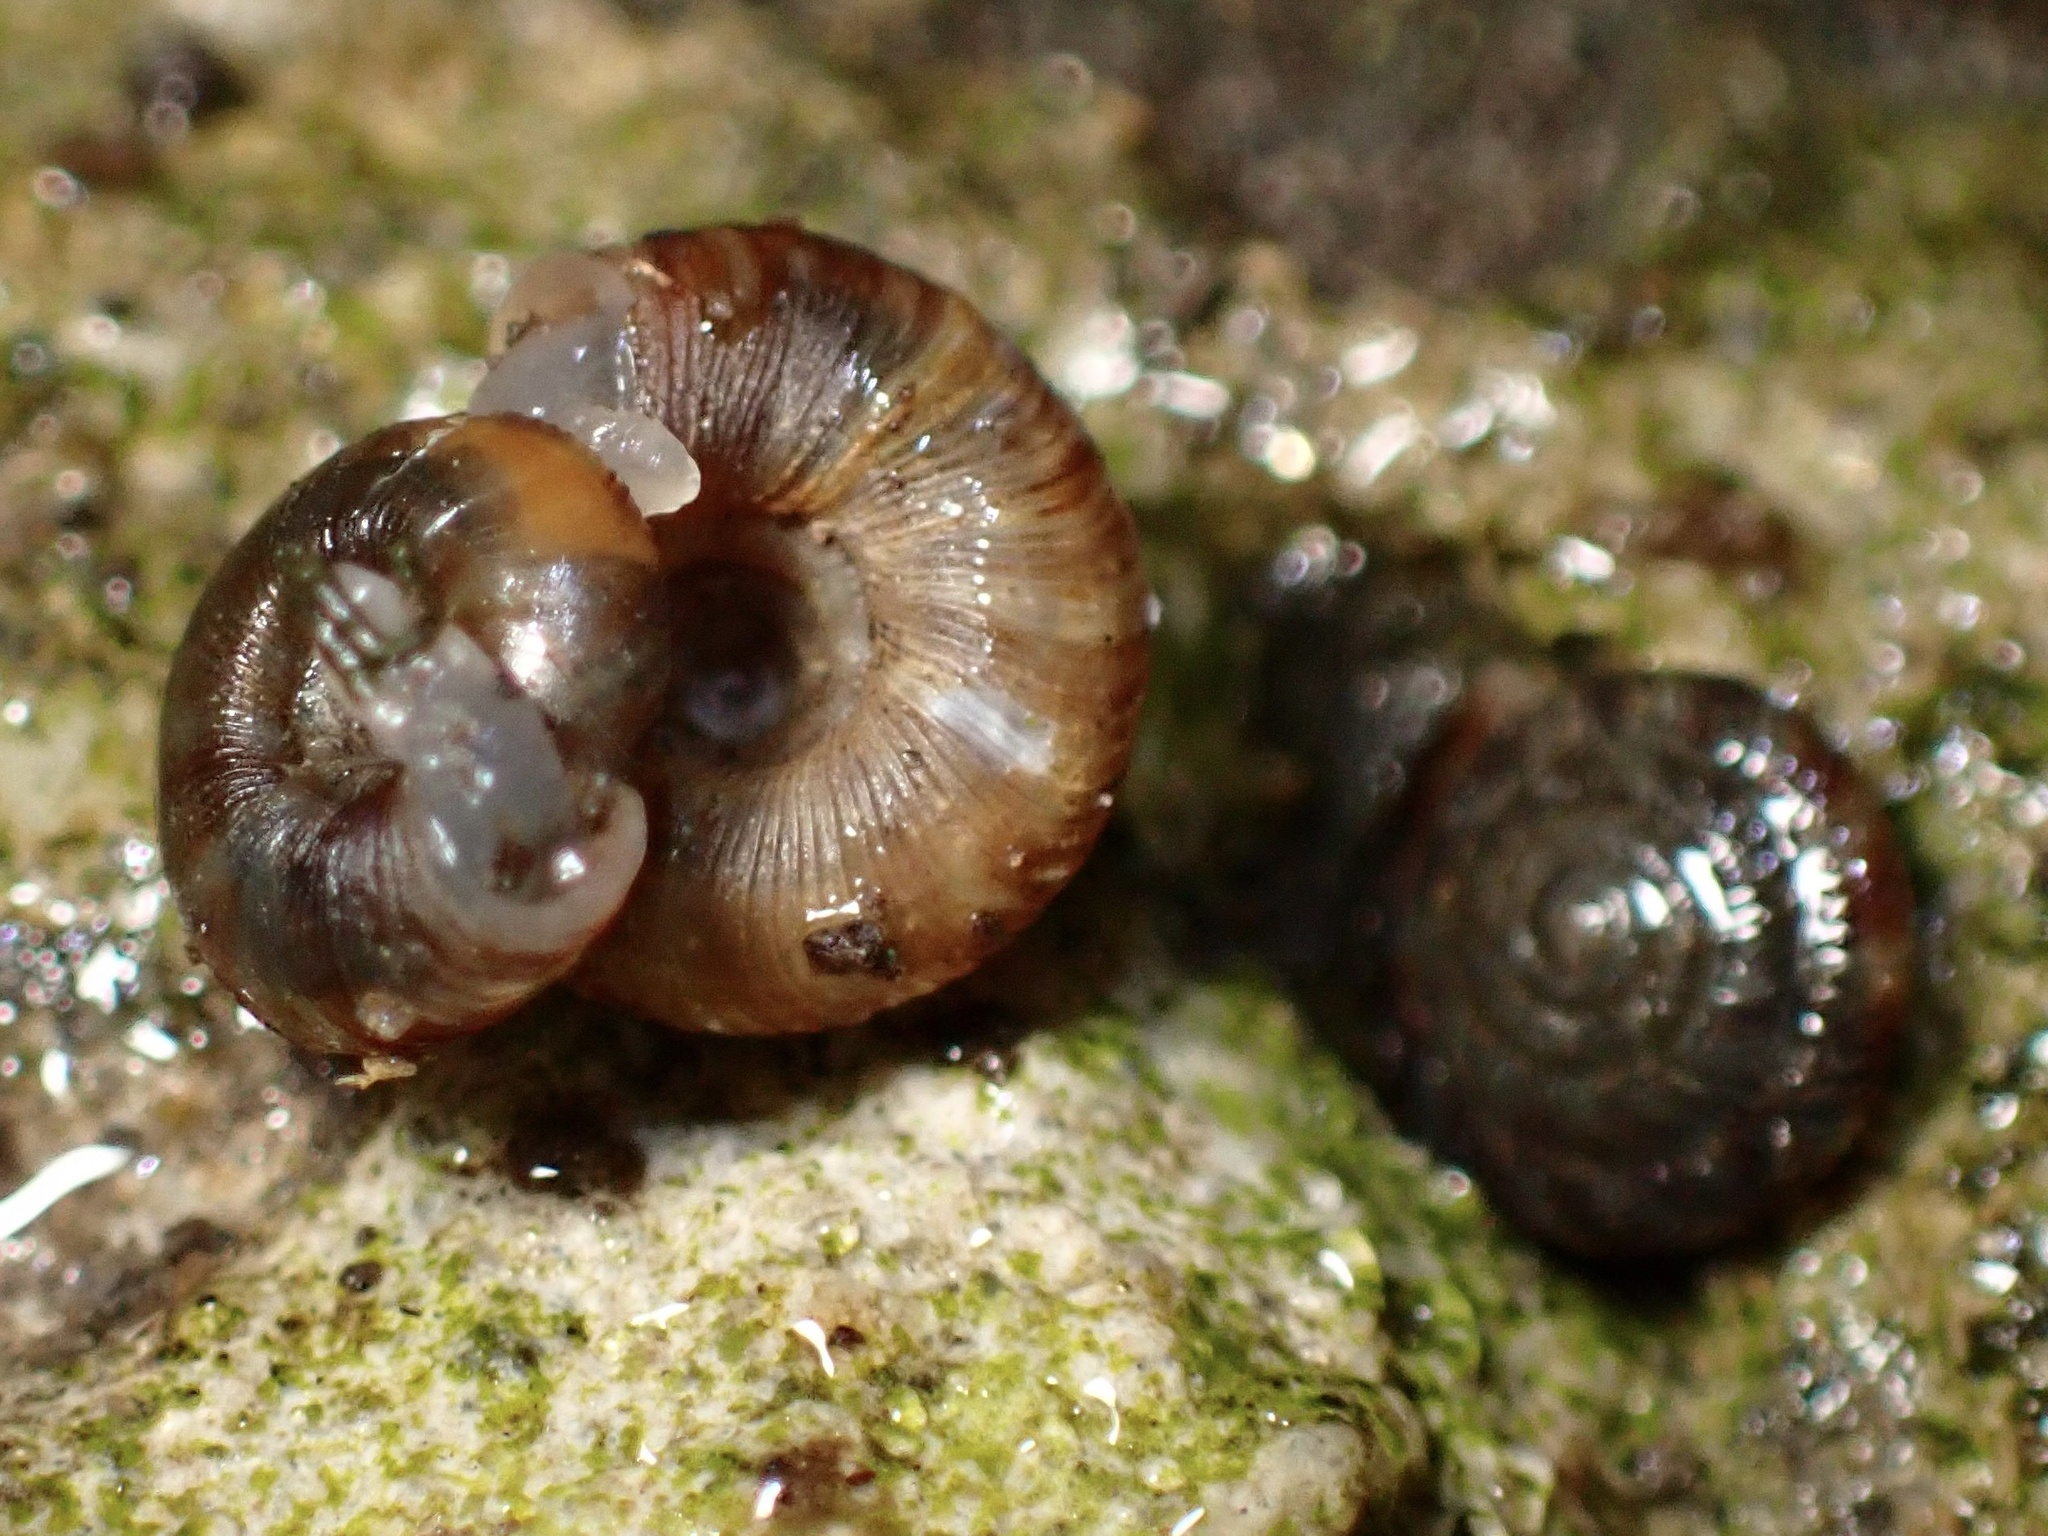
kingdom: Animalia
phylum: Mollusca
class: Gastropoda
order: Stylommatophora
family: Discidae
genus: Discus
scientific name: Discus rotundatus
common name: Rounded snail
